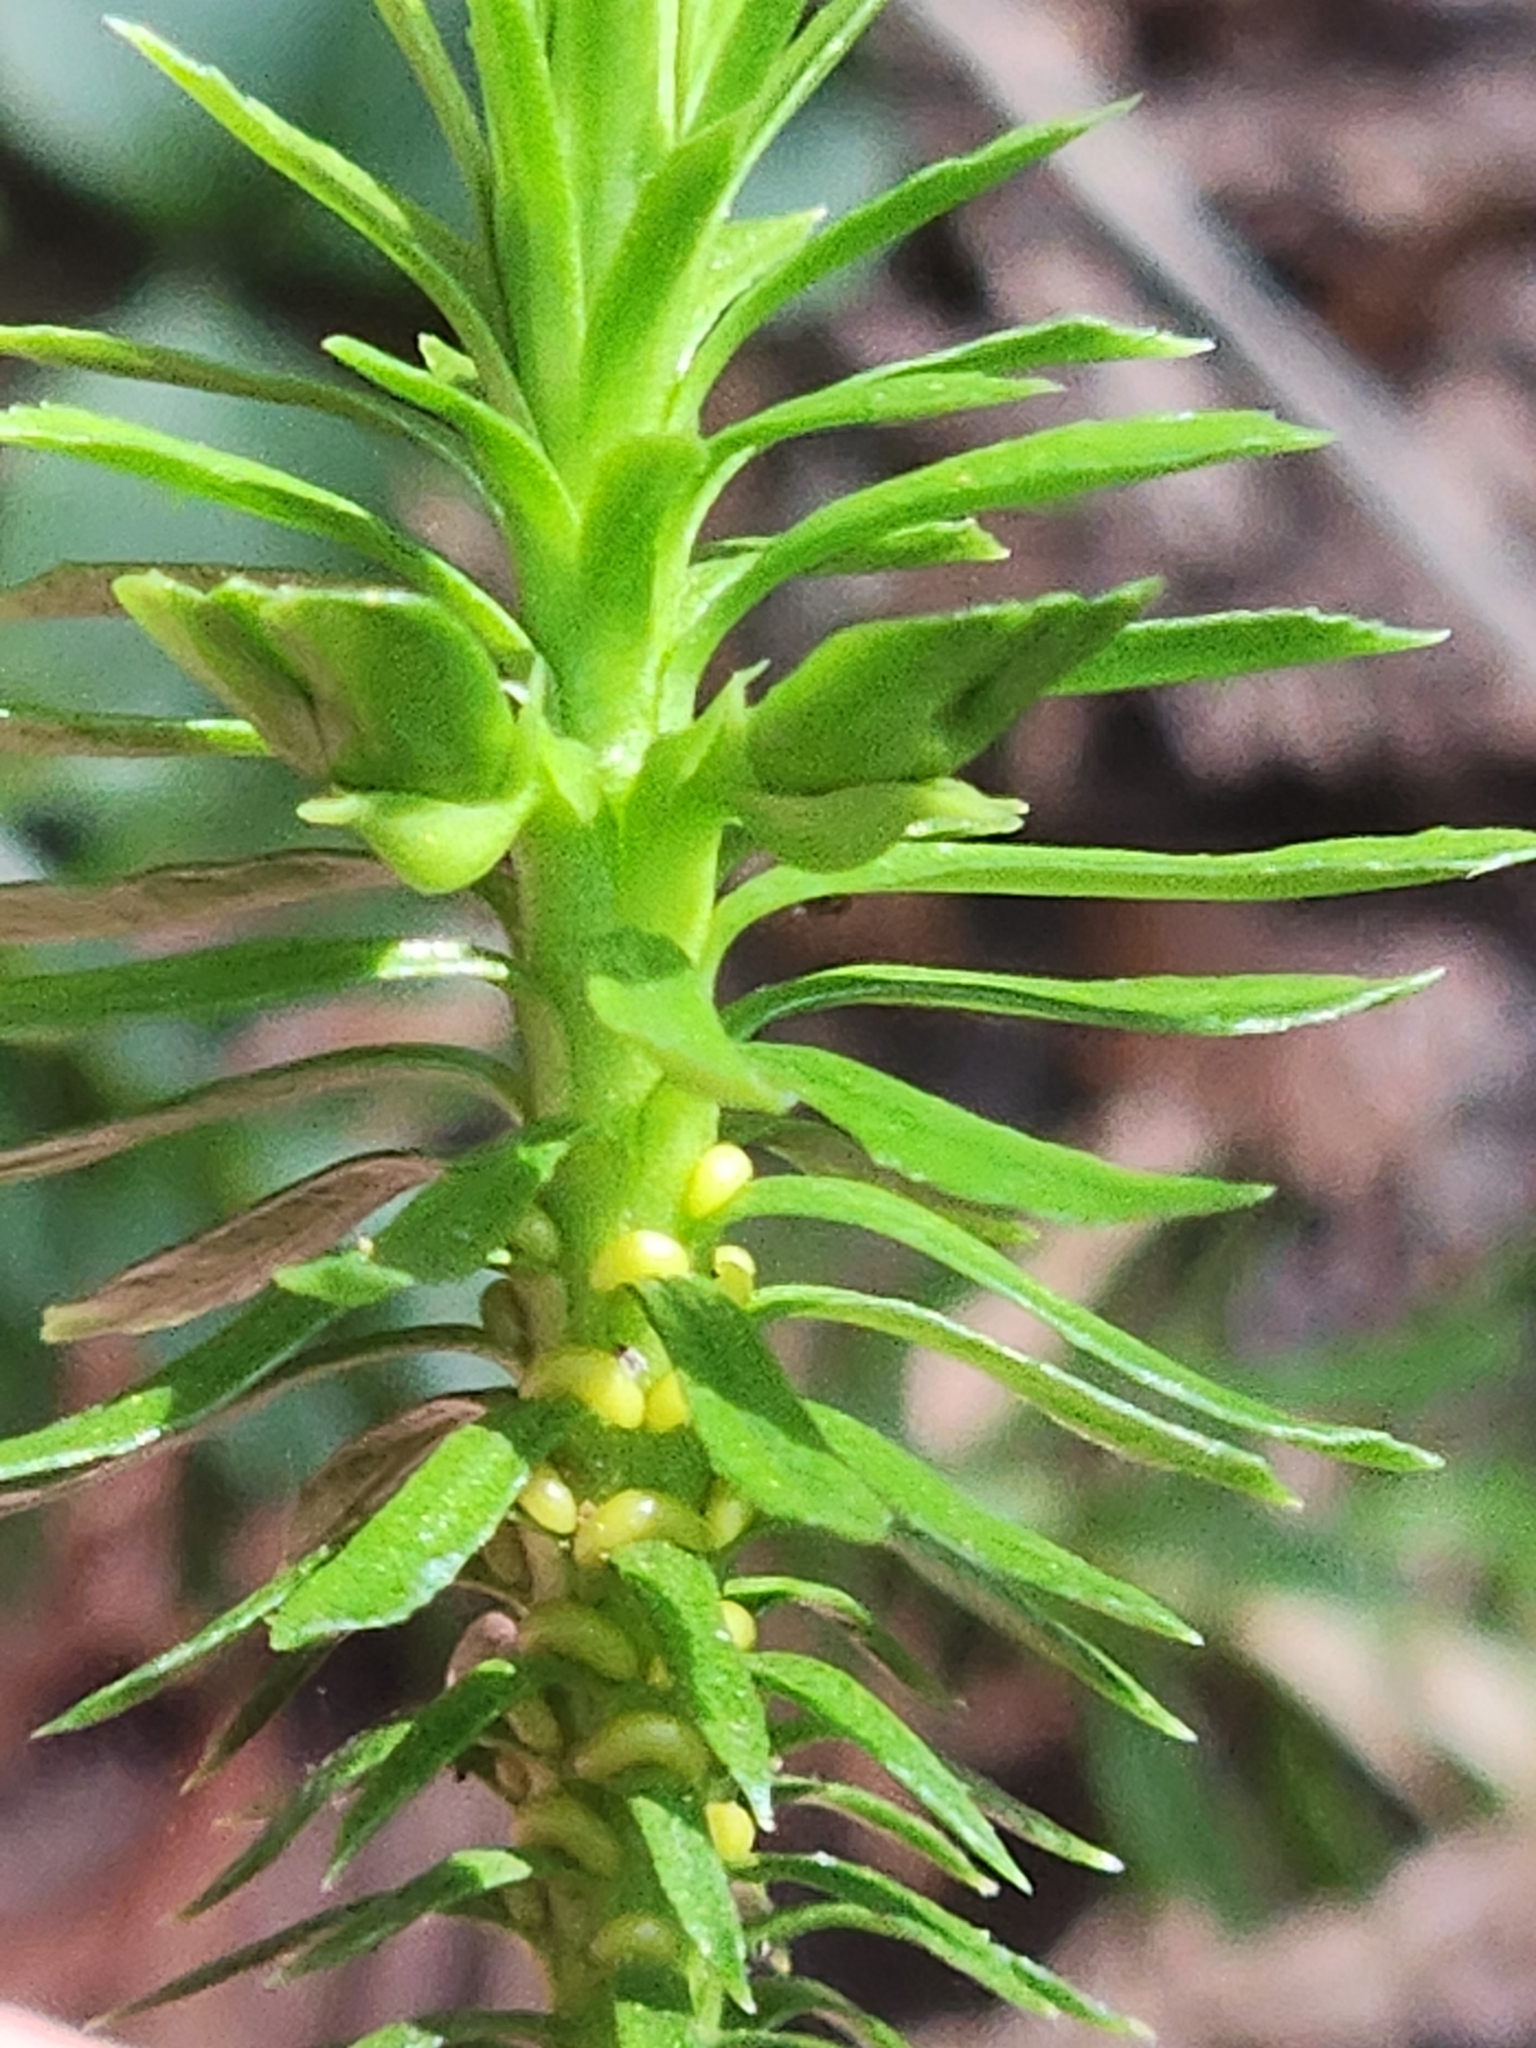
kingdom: Plantae
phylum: Tracheophyta
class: Lycopodiopsida
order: Lycopodiales
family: Lycopodiaceae
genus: Huperzia
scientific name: Huperzia lucidula
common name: Shining clubmoss
